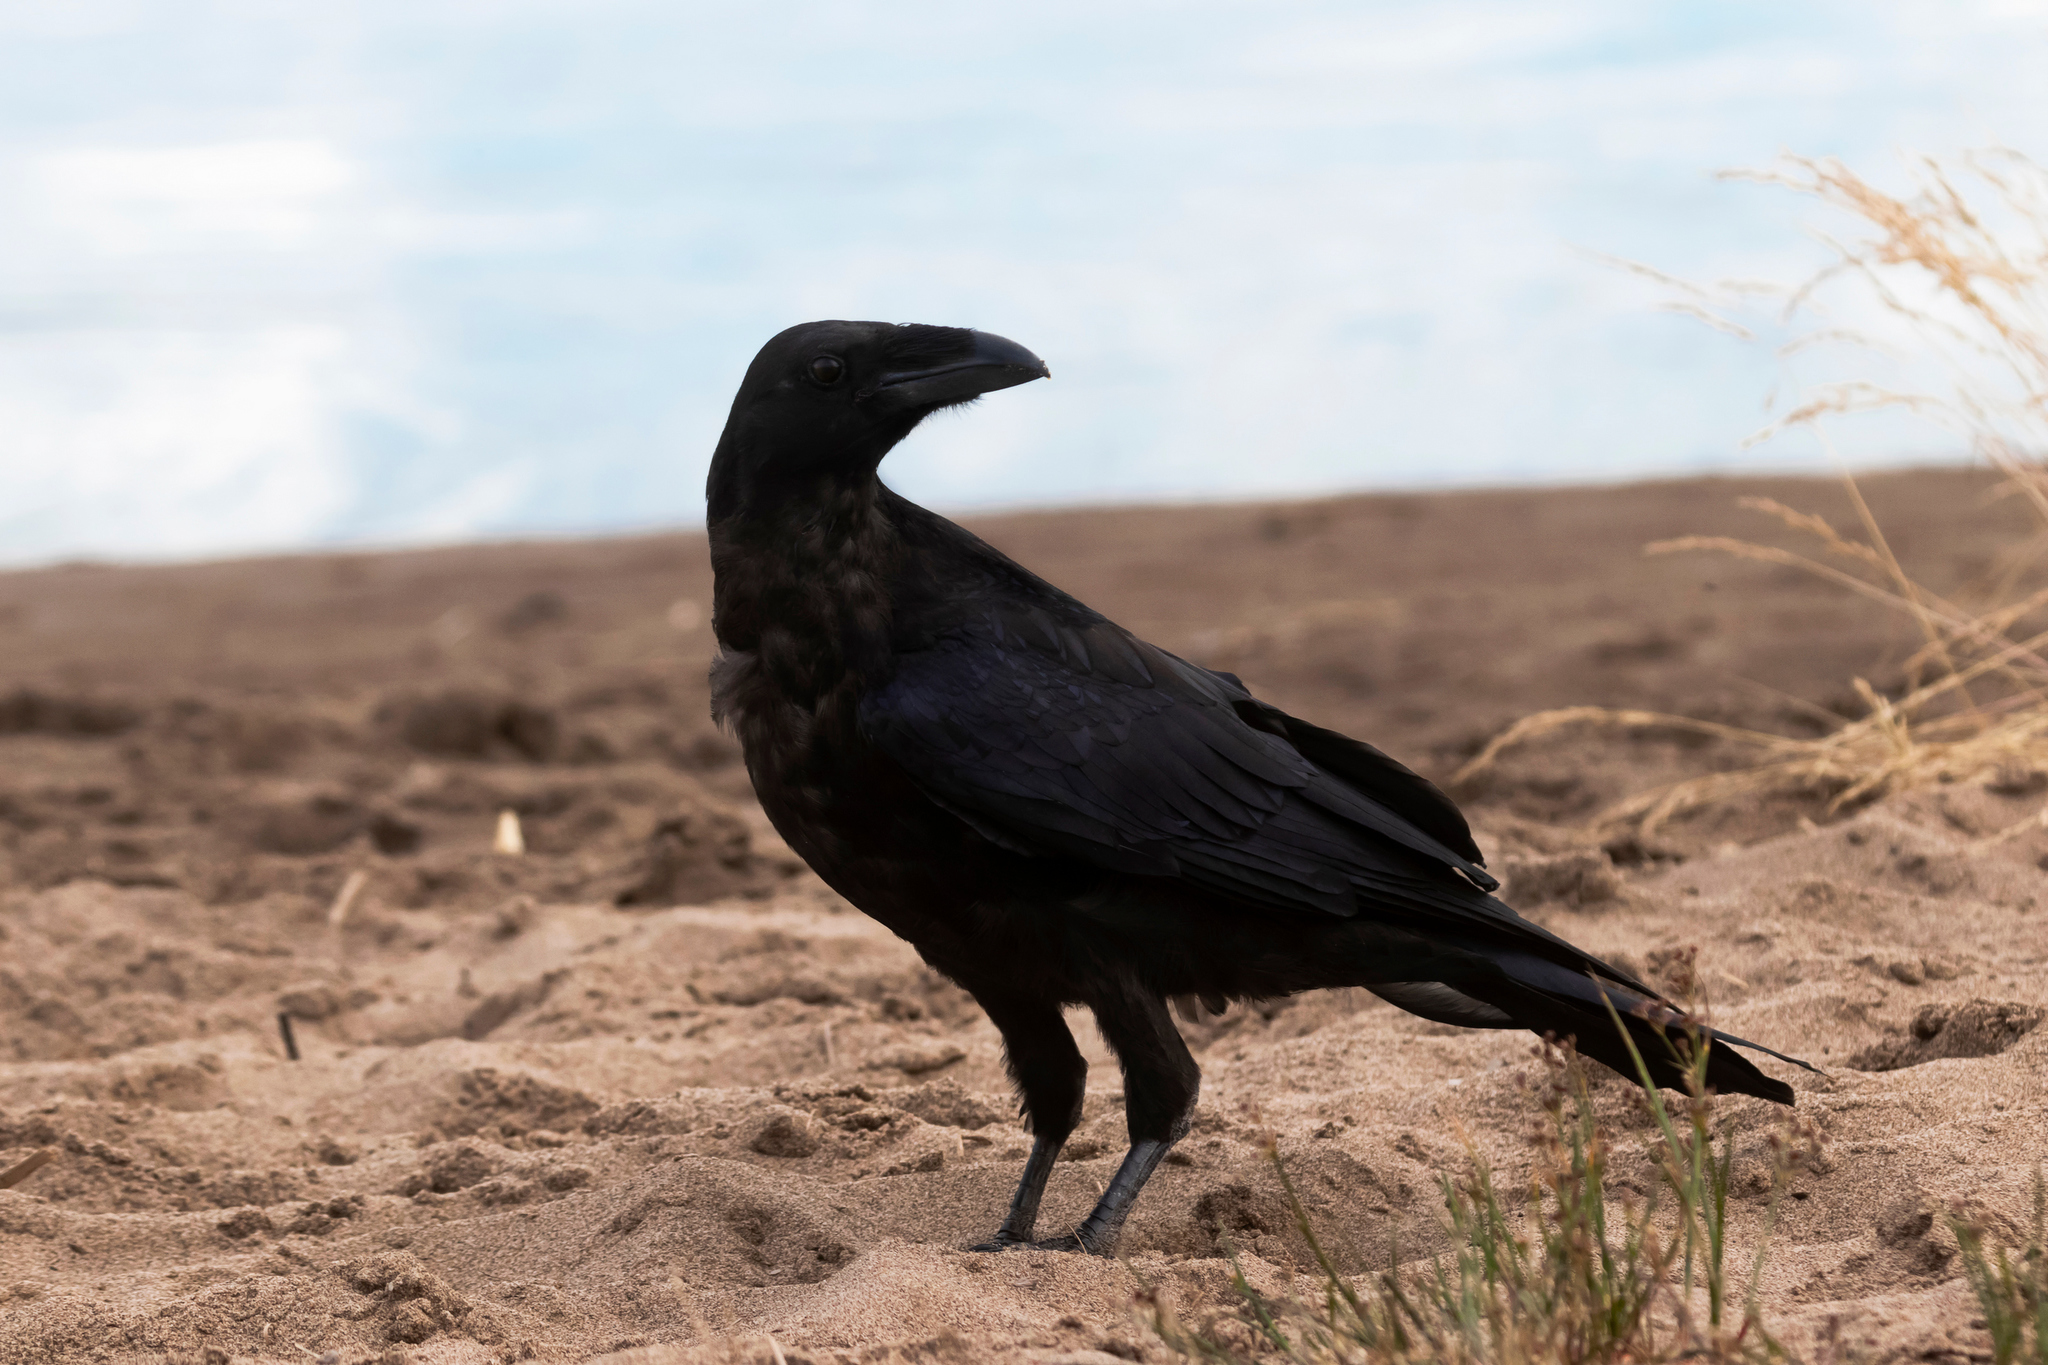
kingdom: Animalia
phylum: Chordata
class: Aves
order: Passeriformes
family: Corvidae
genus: Corvus
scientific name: Corvus corax
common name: Common raven
